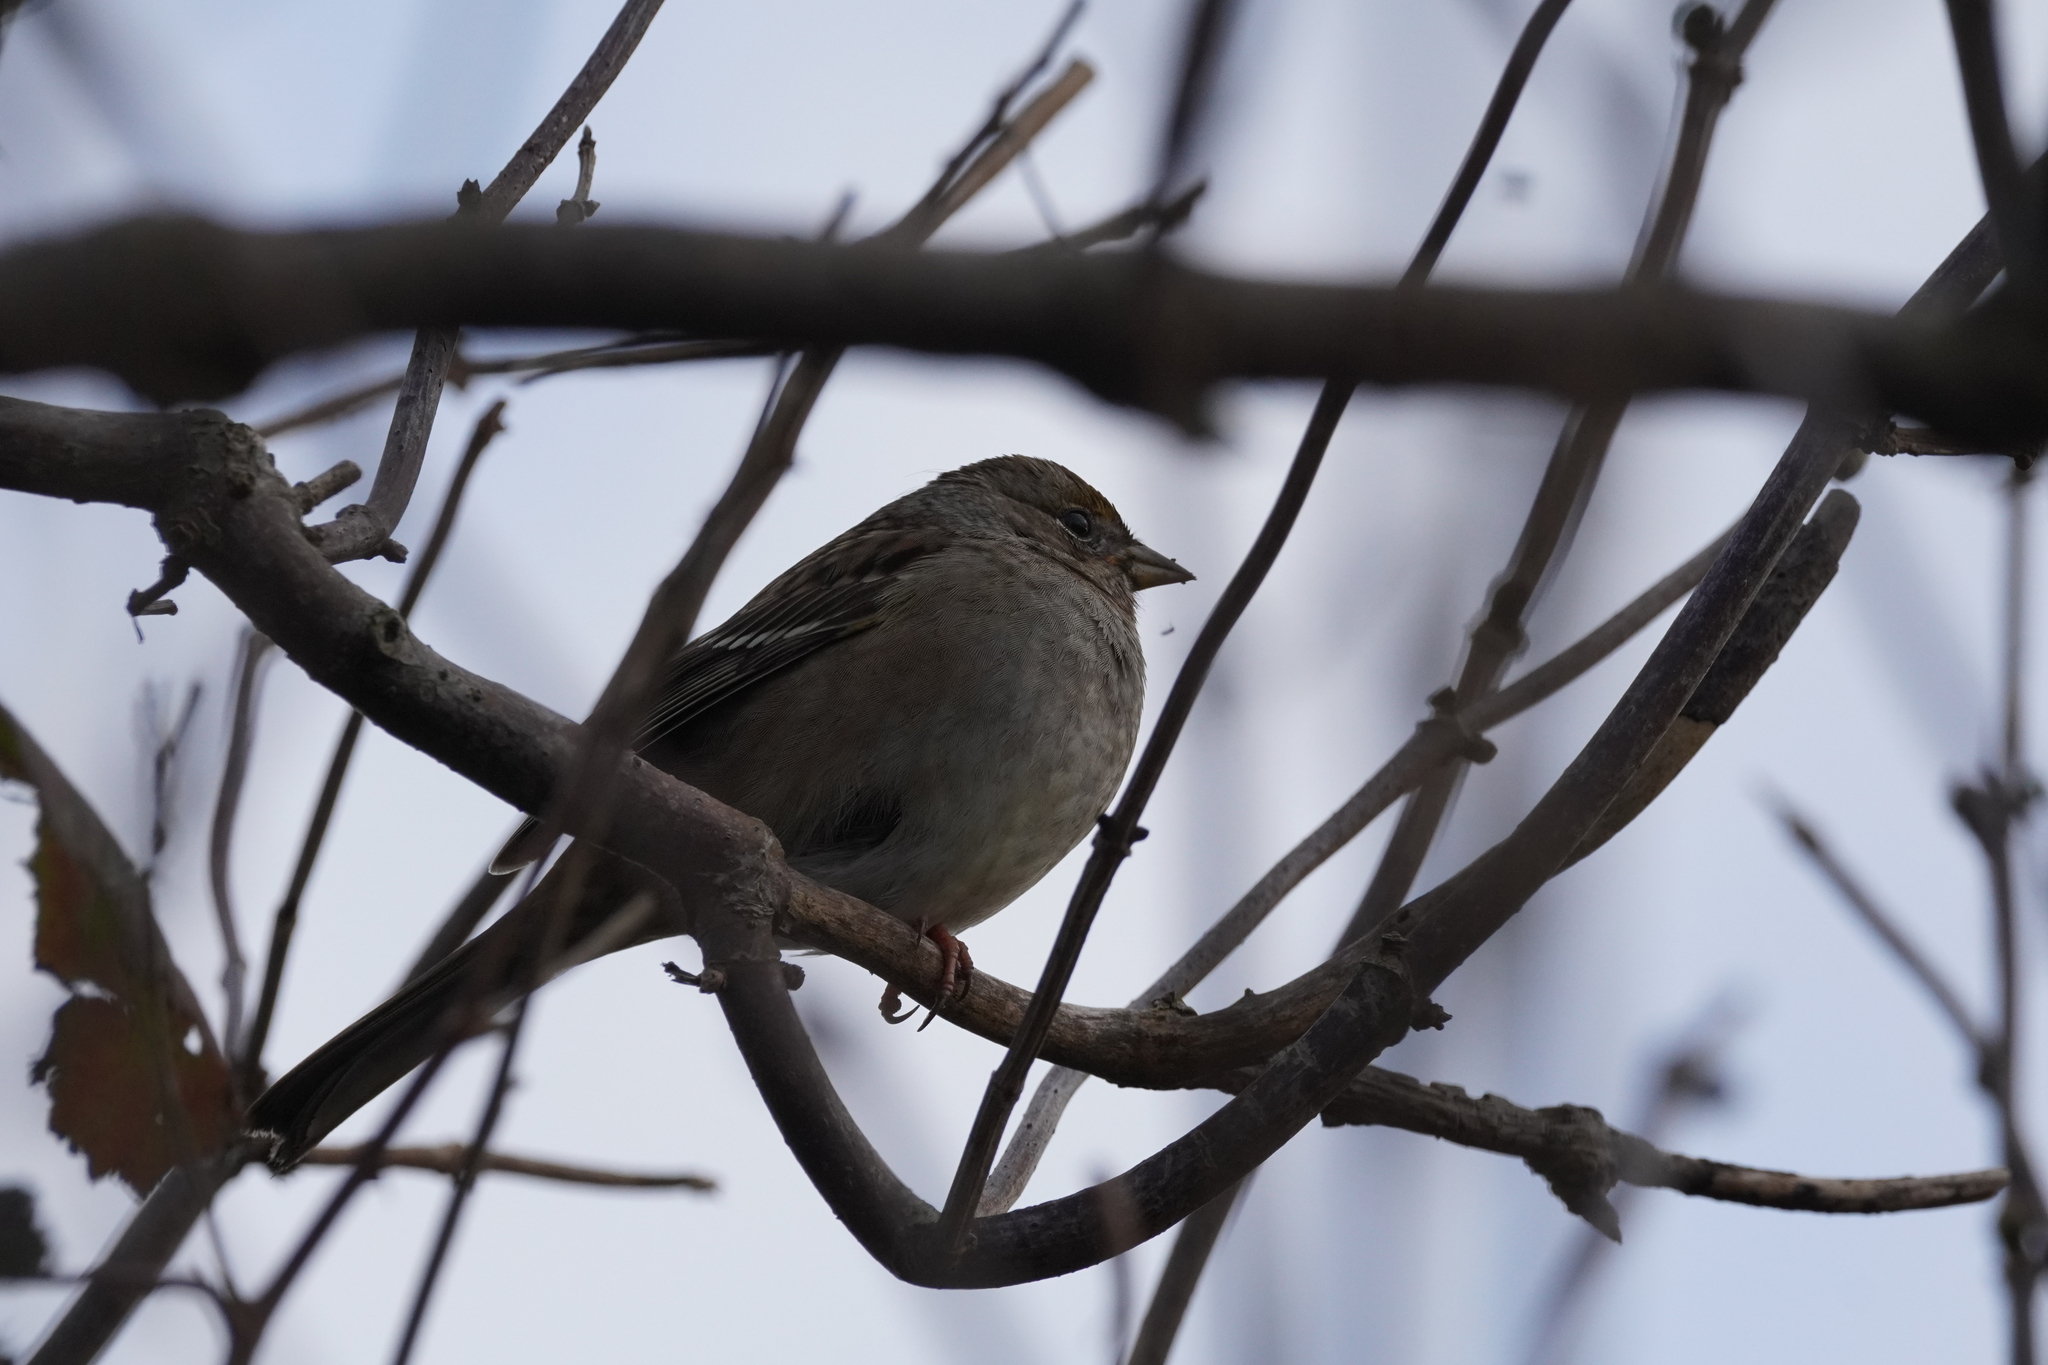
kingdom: Animalia
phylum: Chordata
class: Aves
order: Passeriformes
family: Passerellidae
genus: Zonotrichia
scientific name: Zonotrichia atricapilla
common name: Golden-crowned sparrow
